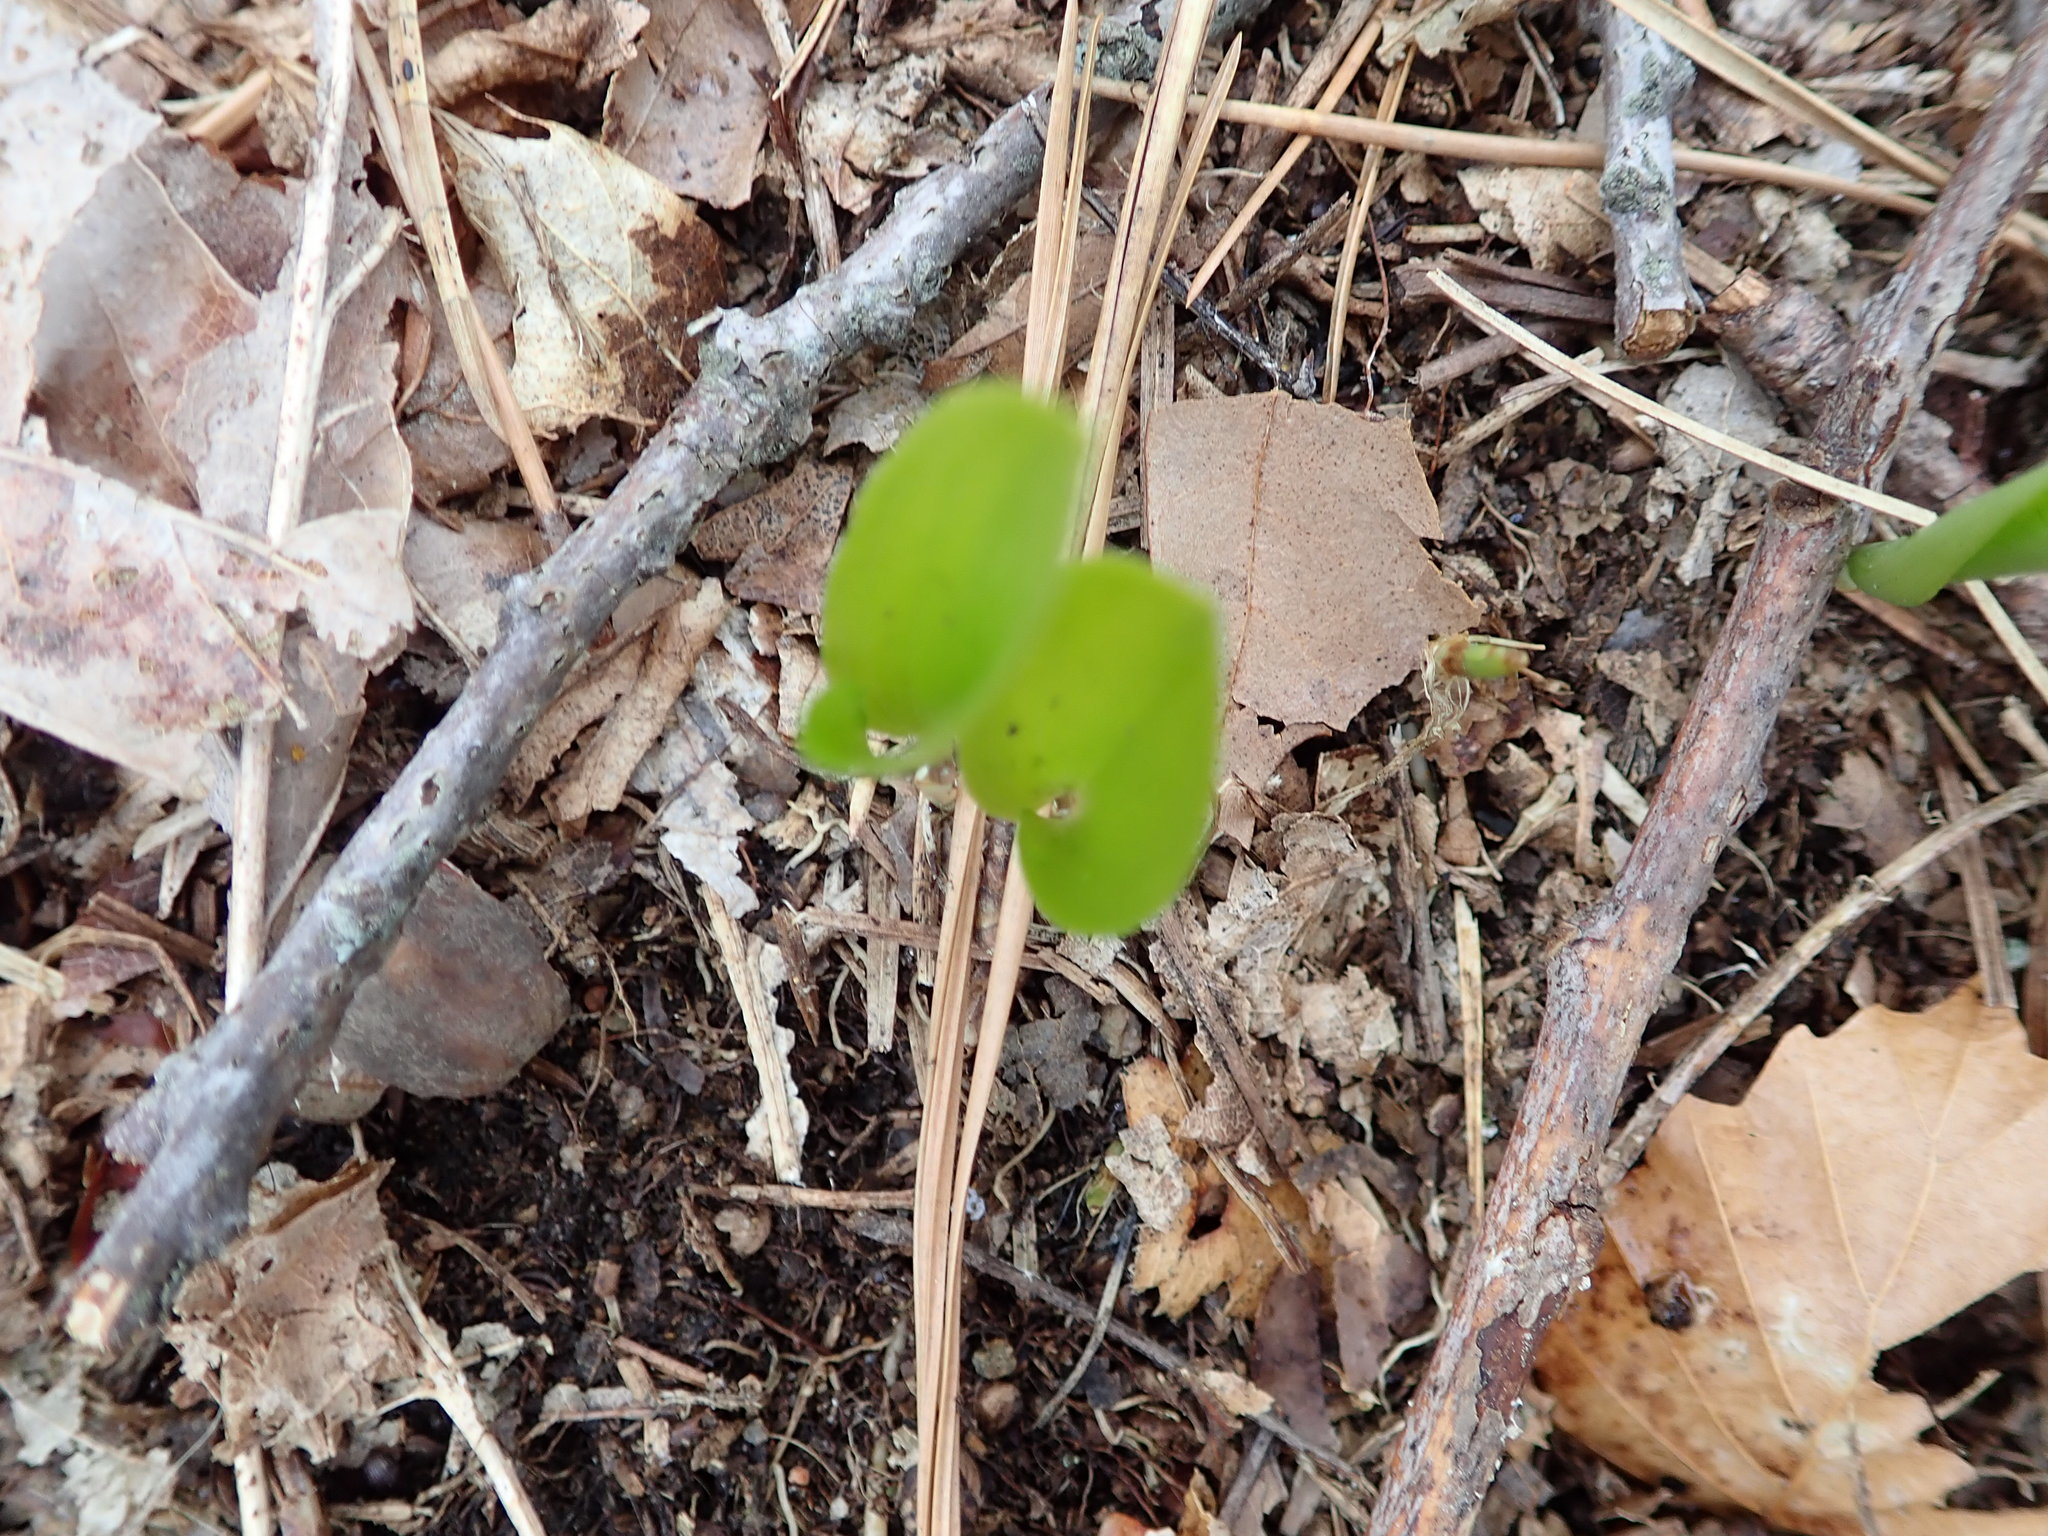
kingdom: Plantae
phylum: Tracheophyta
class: Liliopsida
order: Asparagales
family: Asparagaceae
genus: Maianthemum
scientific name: Maianthemum canadense
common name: False lily-of-the-valley
